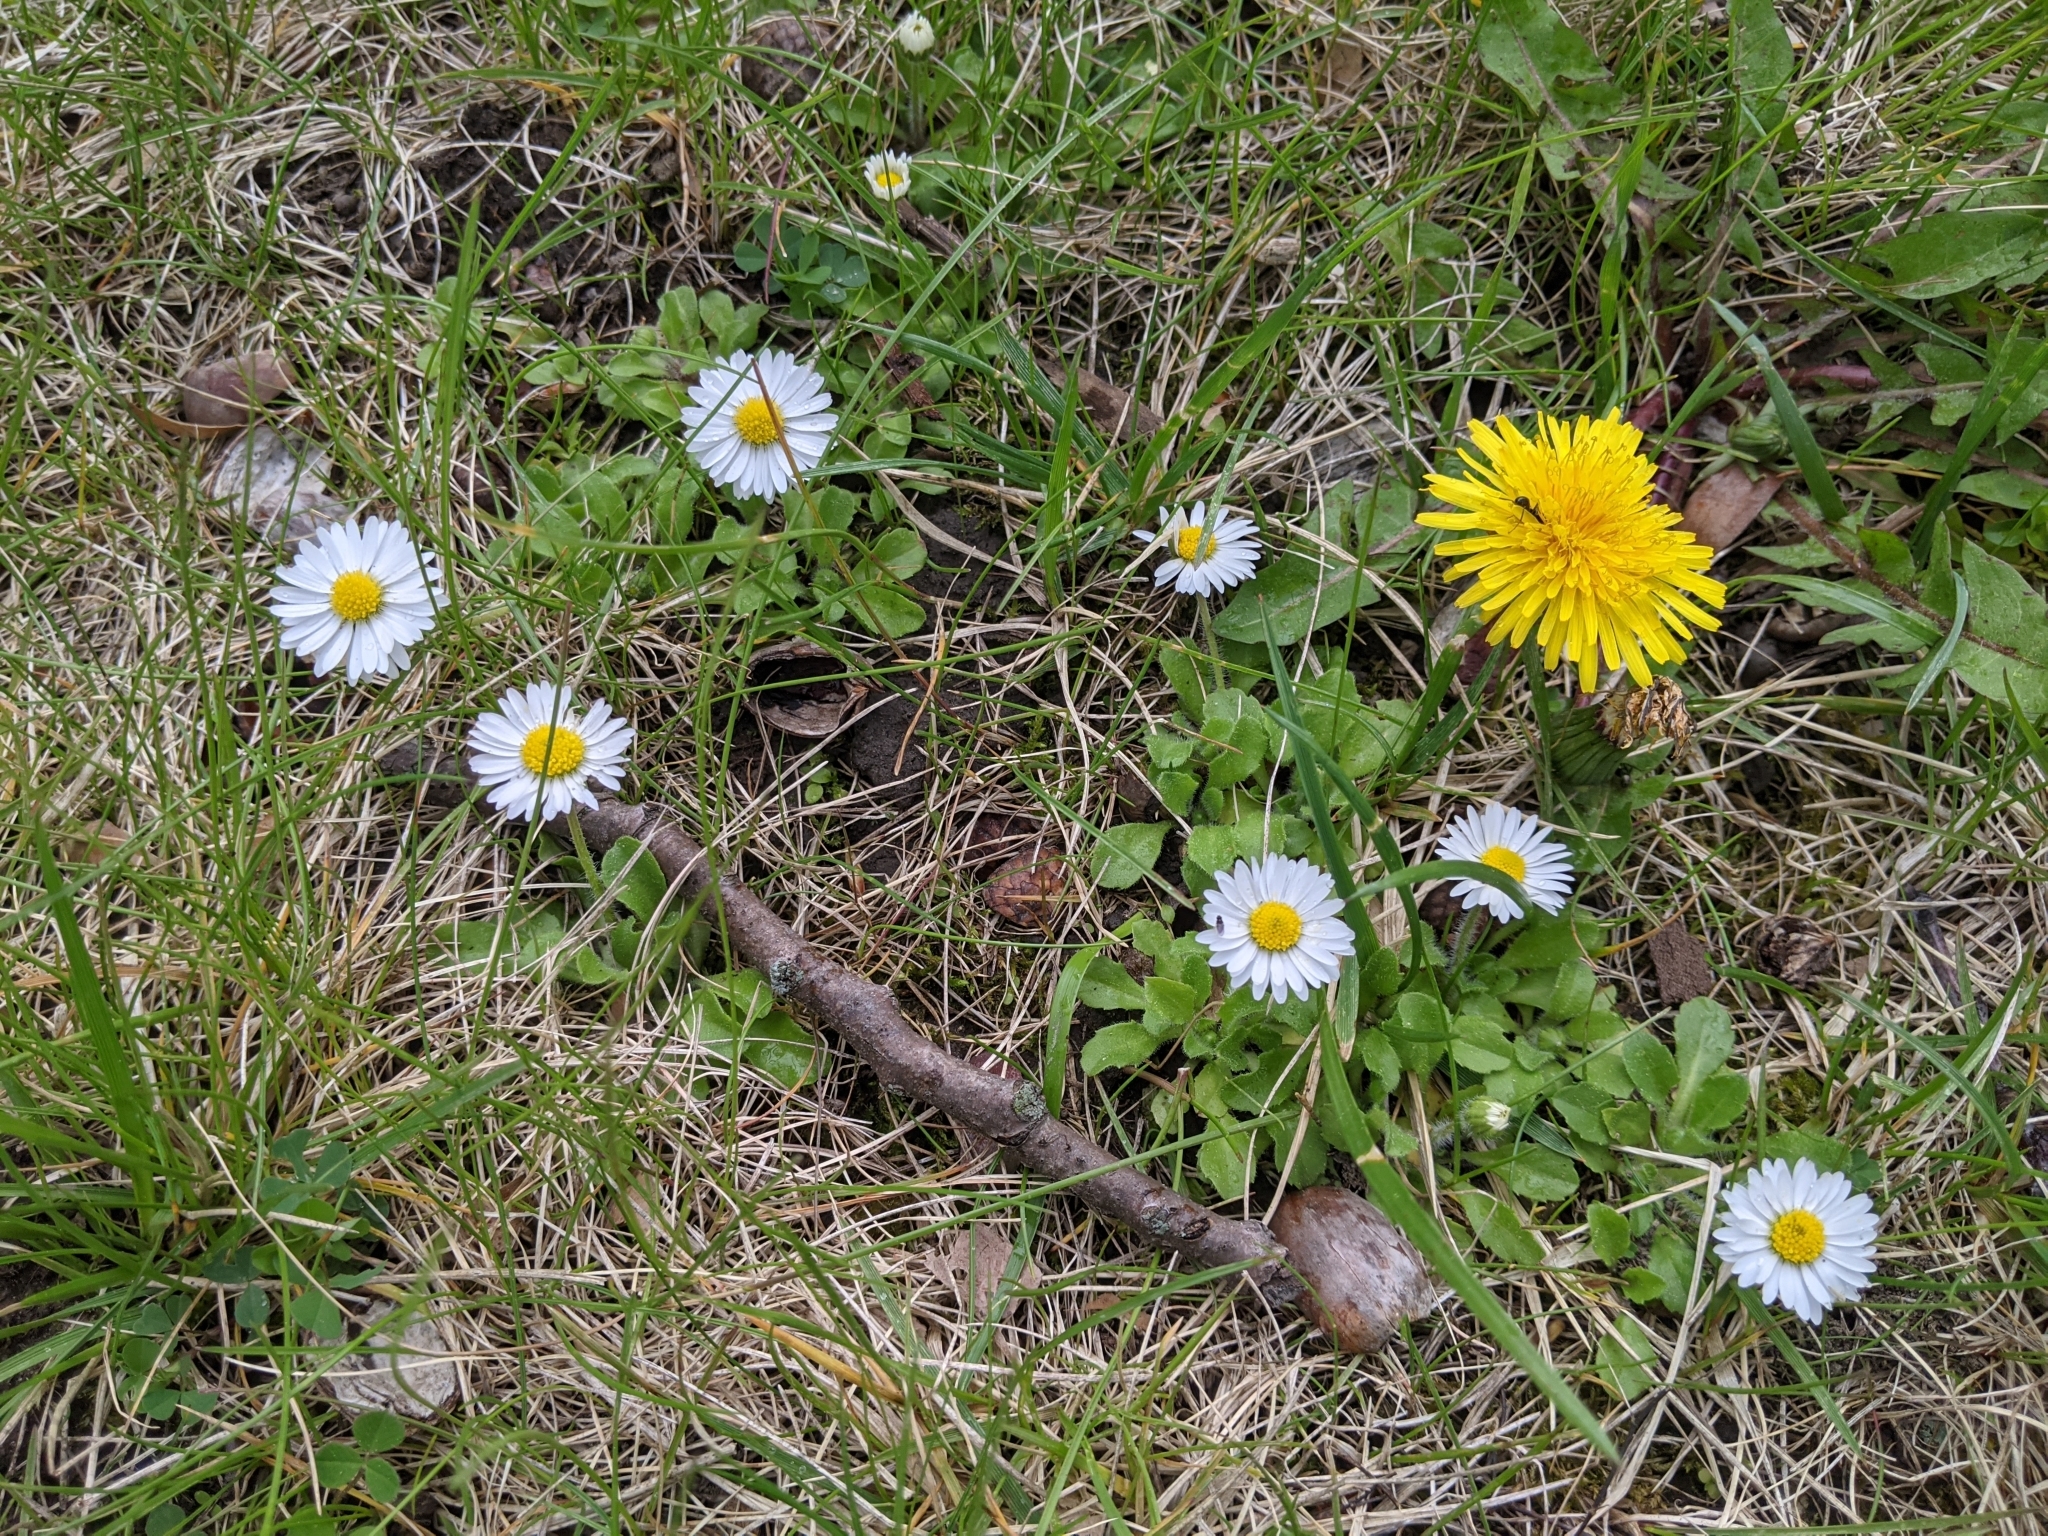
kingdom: Plantae
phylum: Tracheophyta
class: Magnoliopsida
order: Asterales
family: Asteraceae
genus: Bellis
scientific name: Bellis perennis
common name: Lawndaisy
